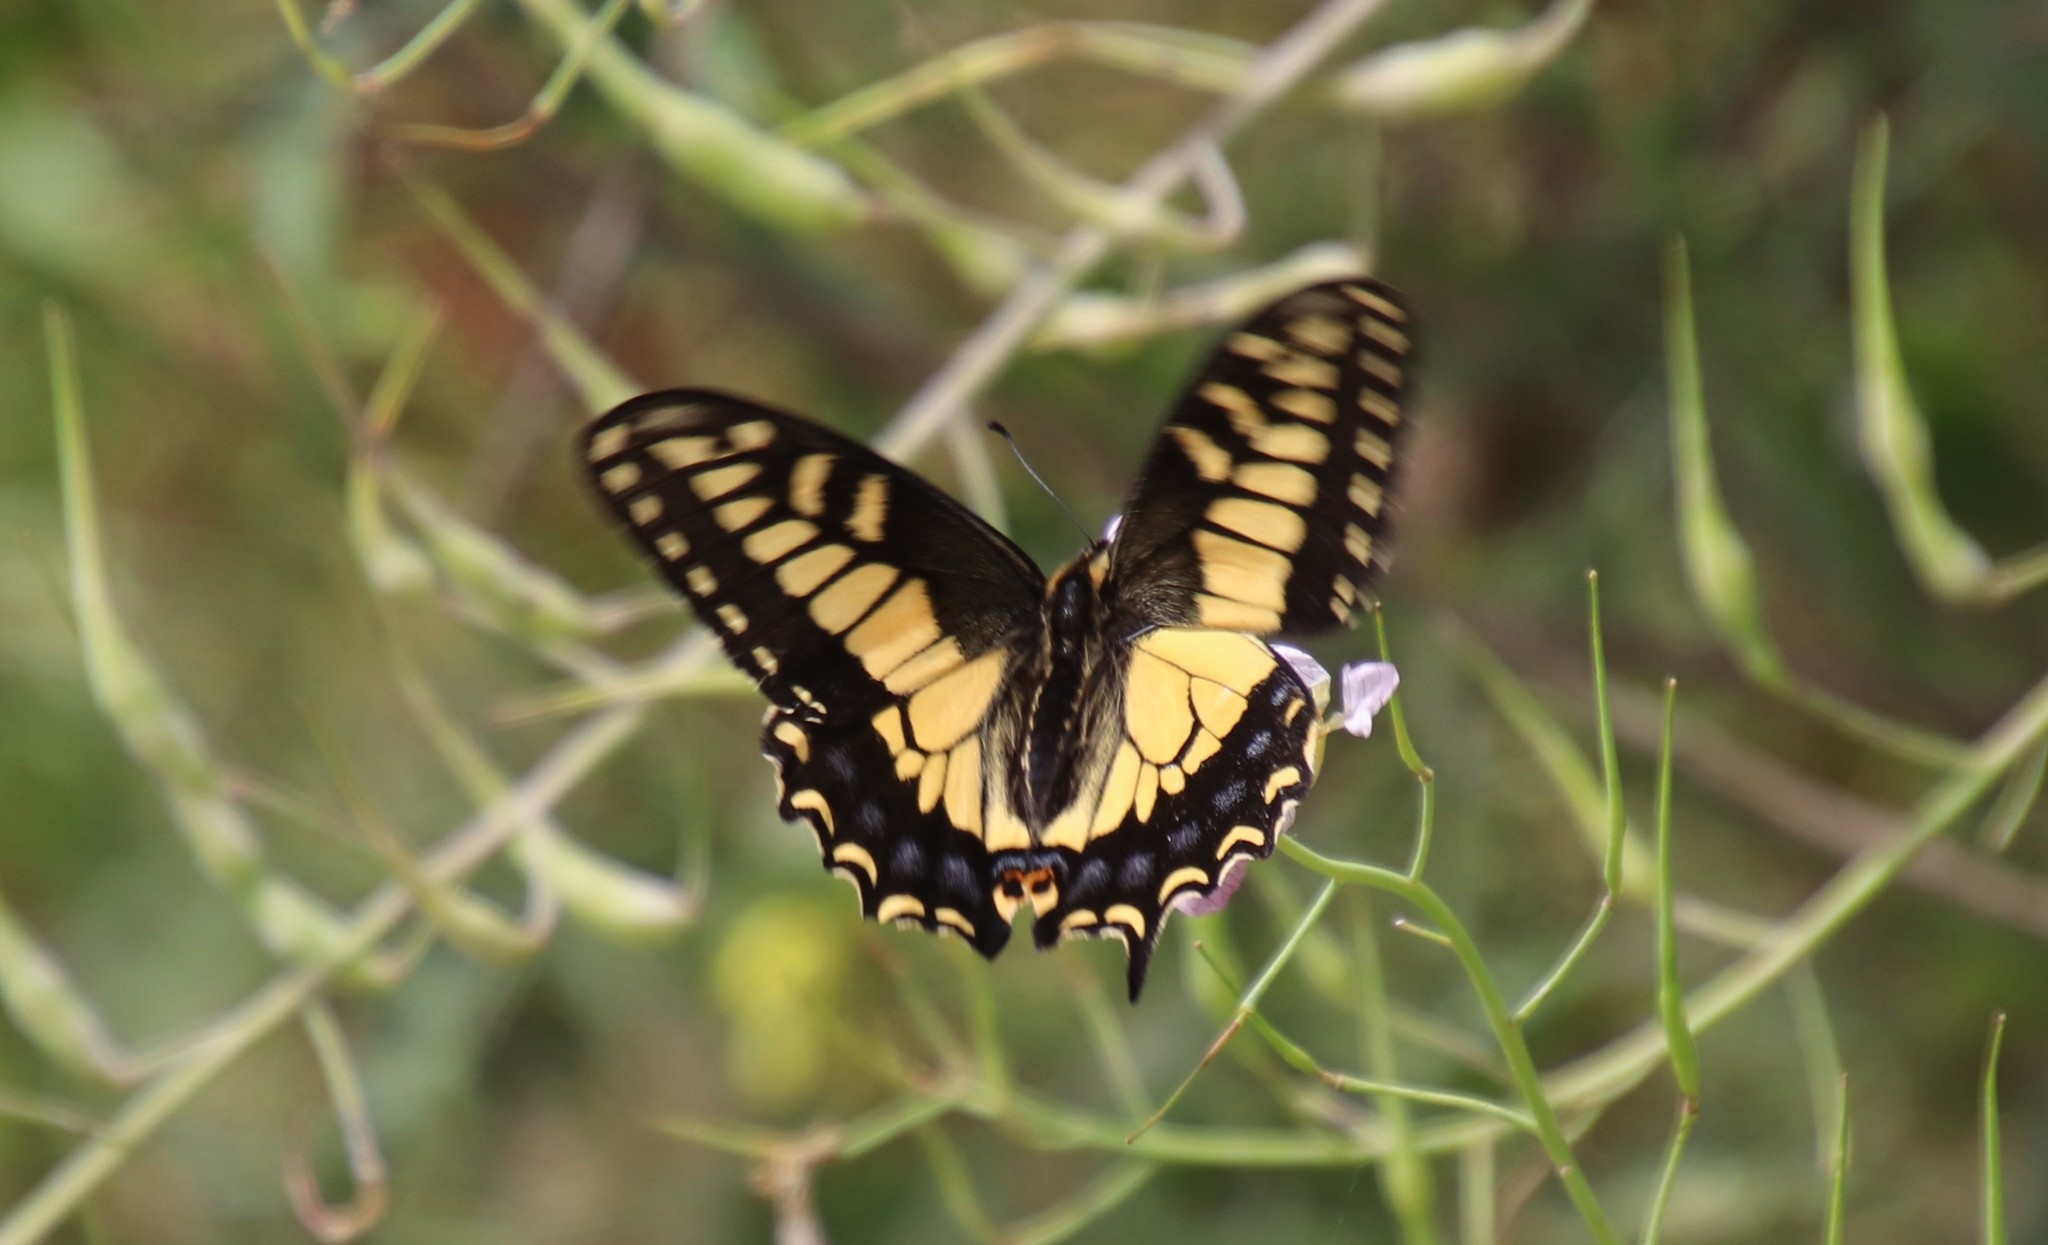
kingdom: Animalia
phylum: Arthropoda
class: Insecta
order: Lepidoptera
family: Papilionidae
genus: Papilio
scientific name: Papilio zelicaon
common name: Anise swallowtail
